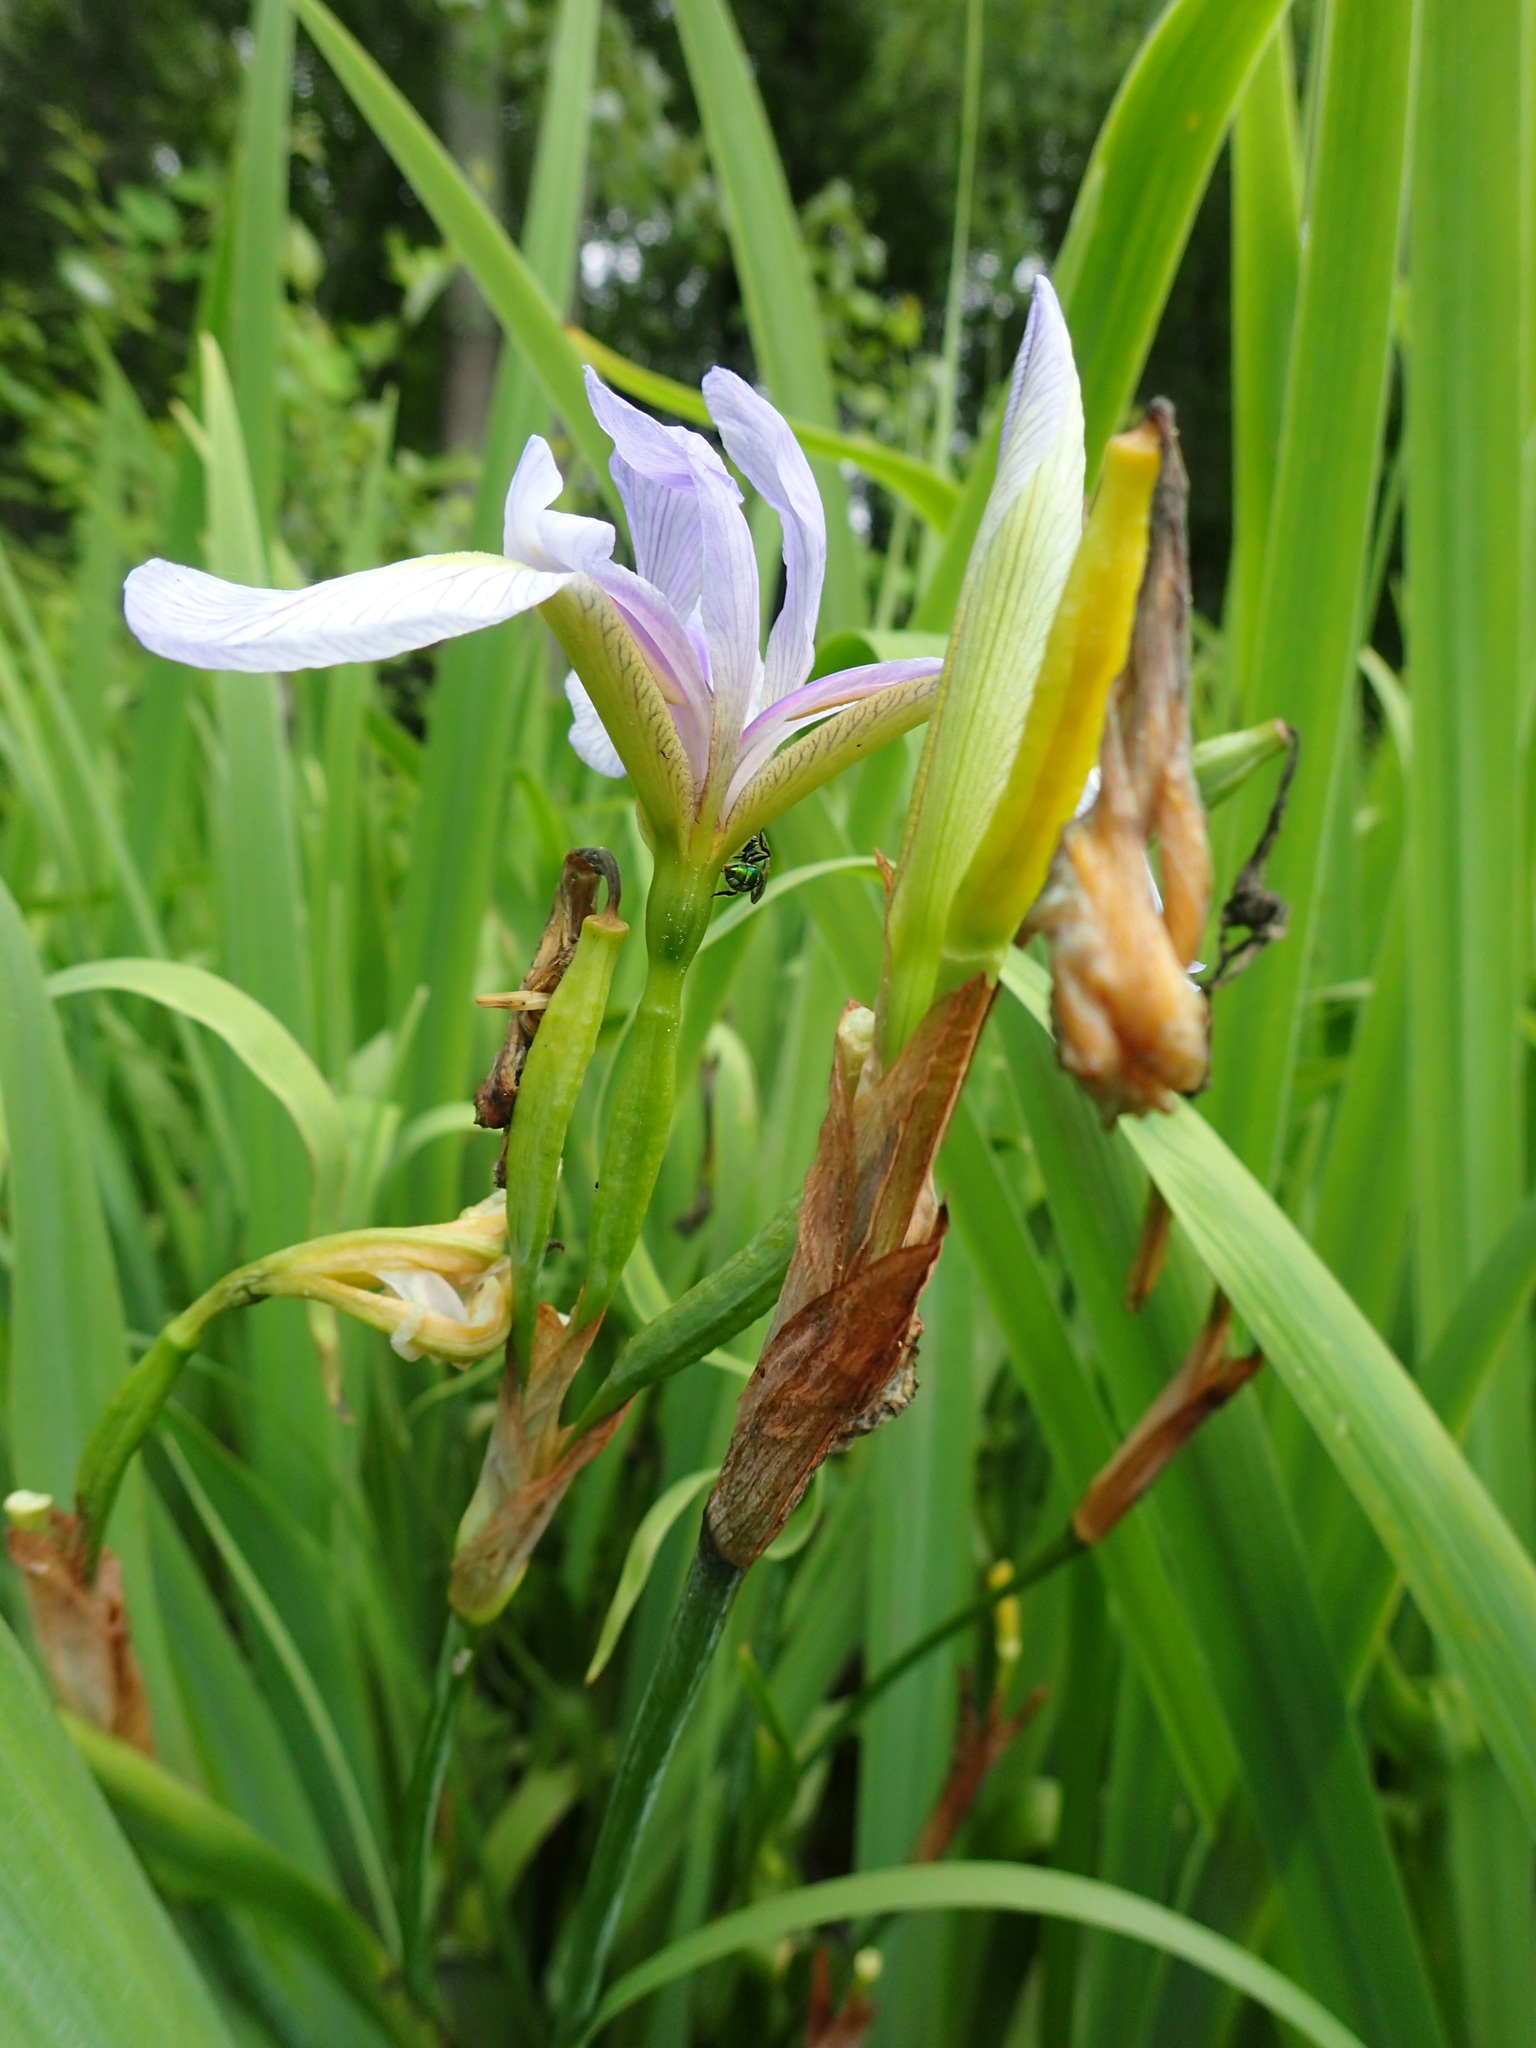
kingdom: Plantae
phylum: Tracheophyta
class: Liliopsida
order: Asparagales
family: Iridaceae
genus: Iris
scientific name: Iris virginica
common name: Southern blue flag
